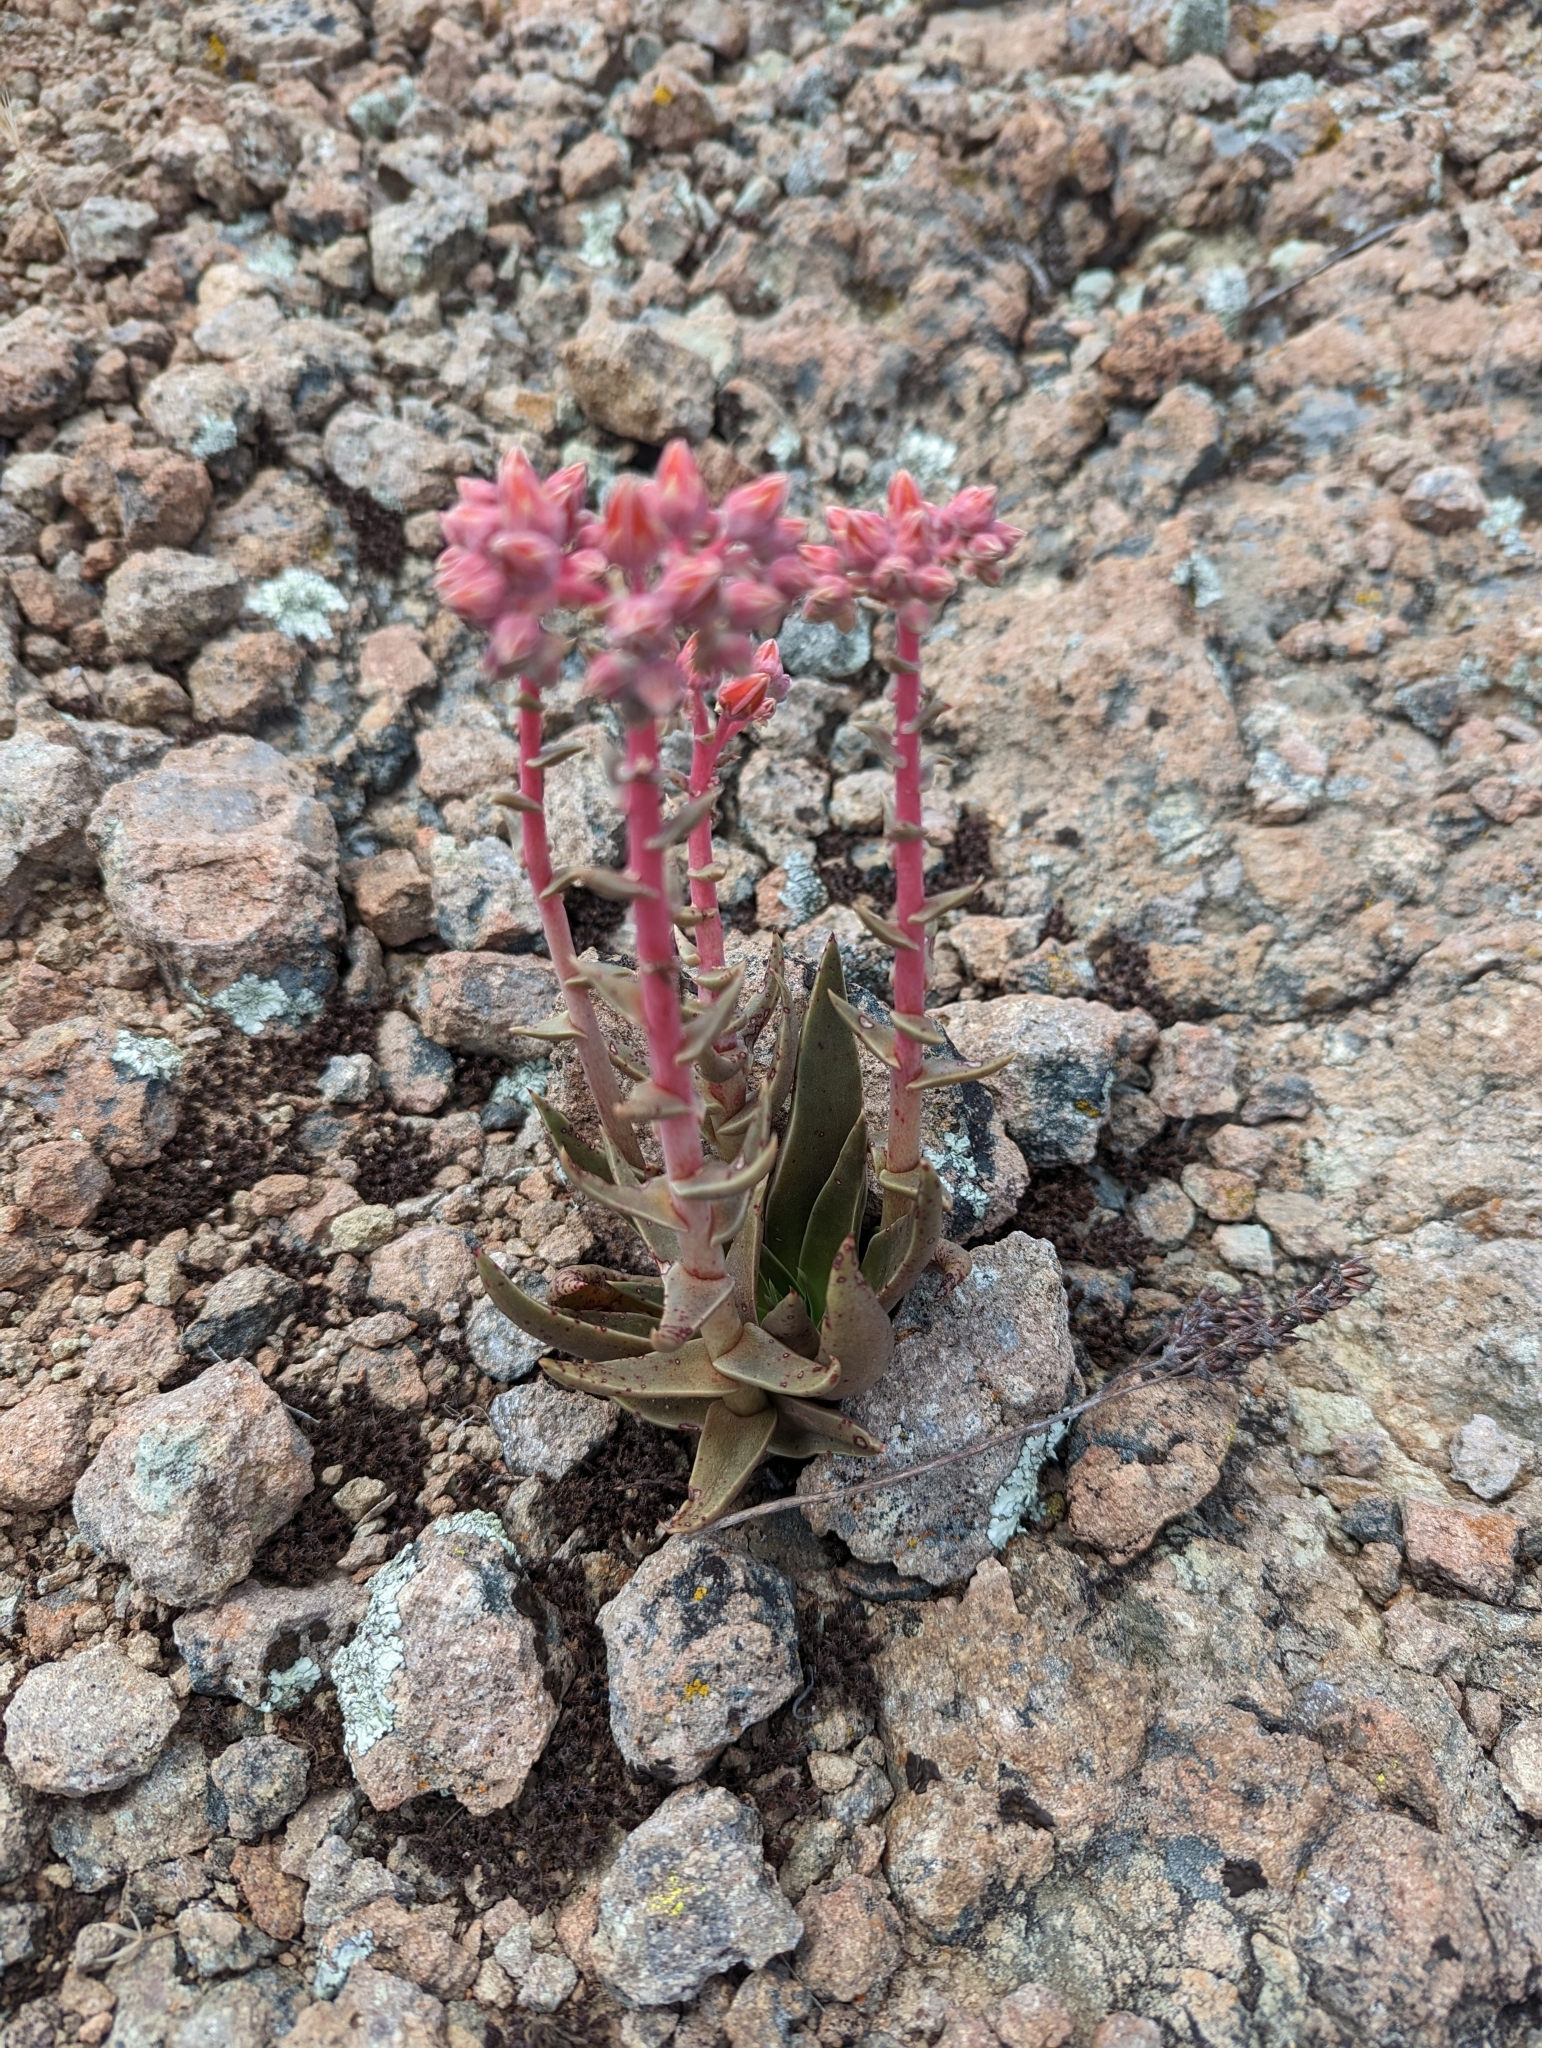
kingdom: Plantae
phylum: Tracheophyta
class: Magnoliopsida
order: Saxifragales
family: Crassulaceae
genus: Dudleya
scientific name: Dudleya lanceolata
